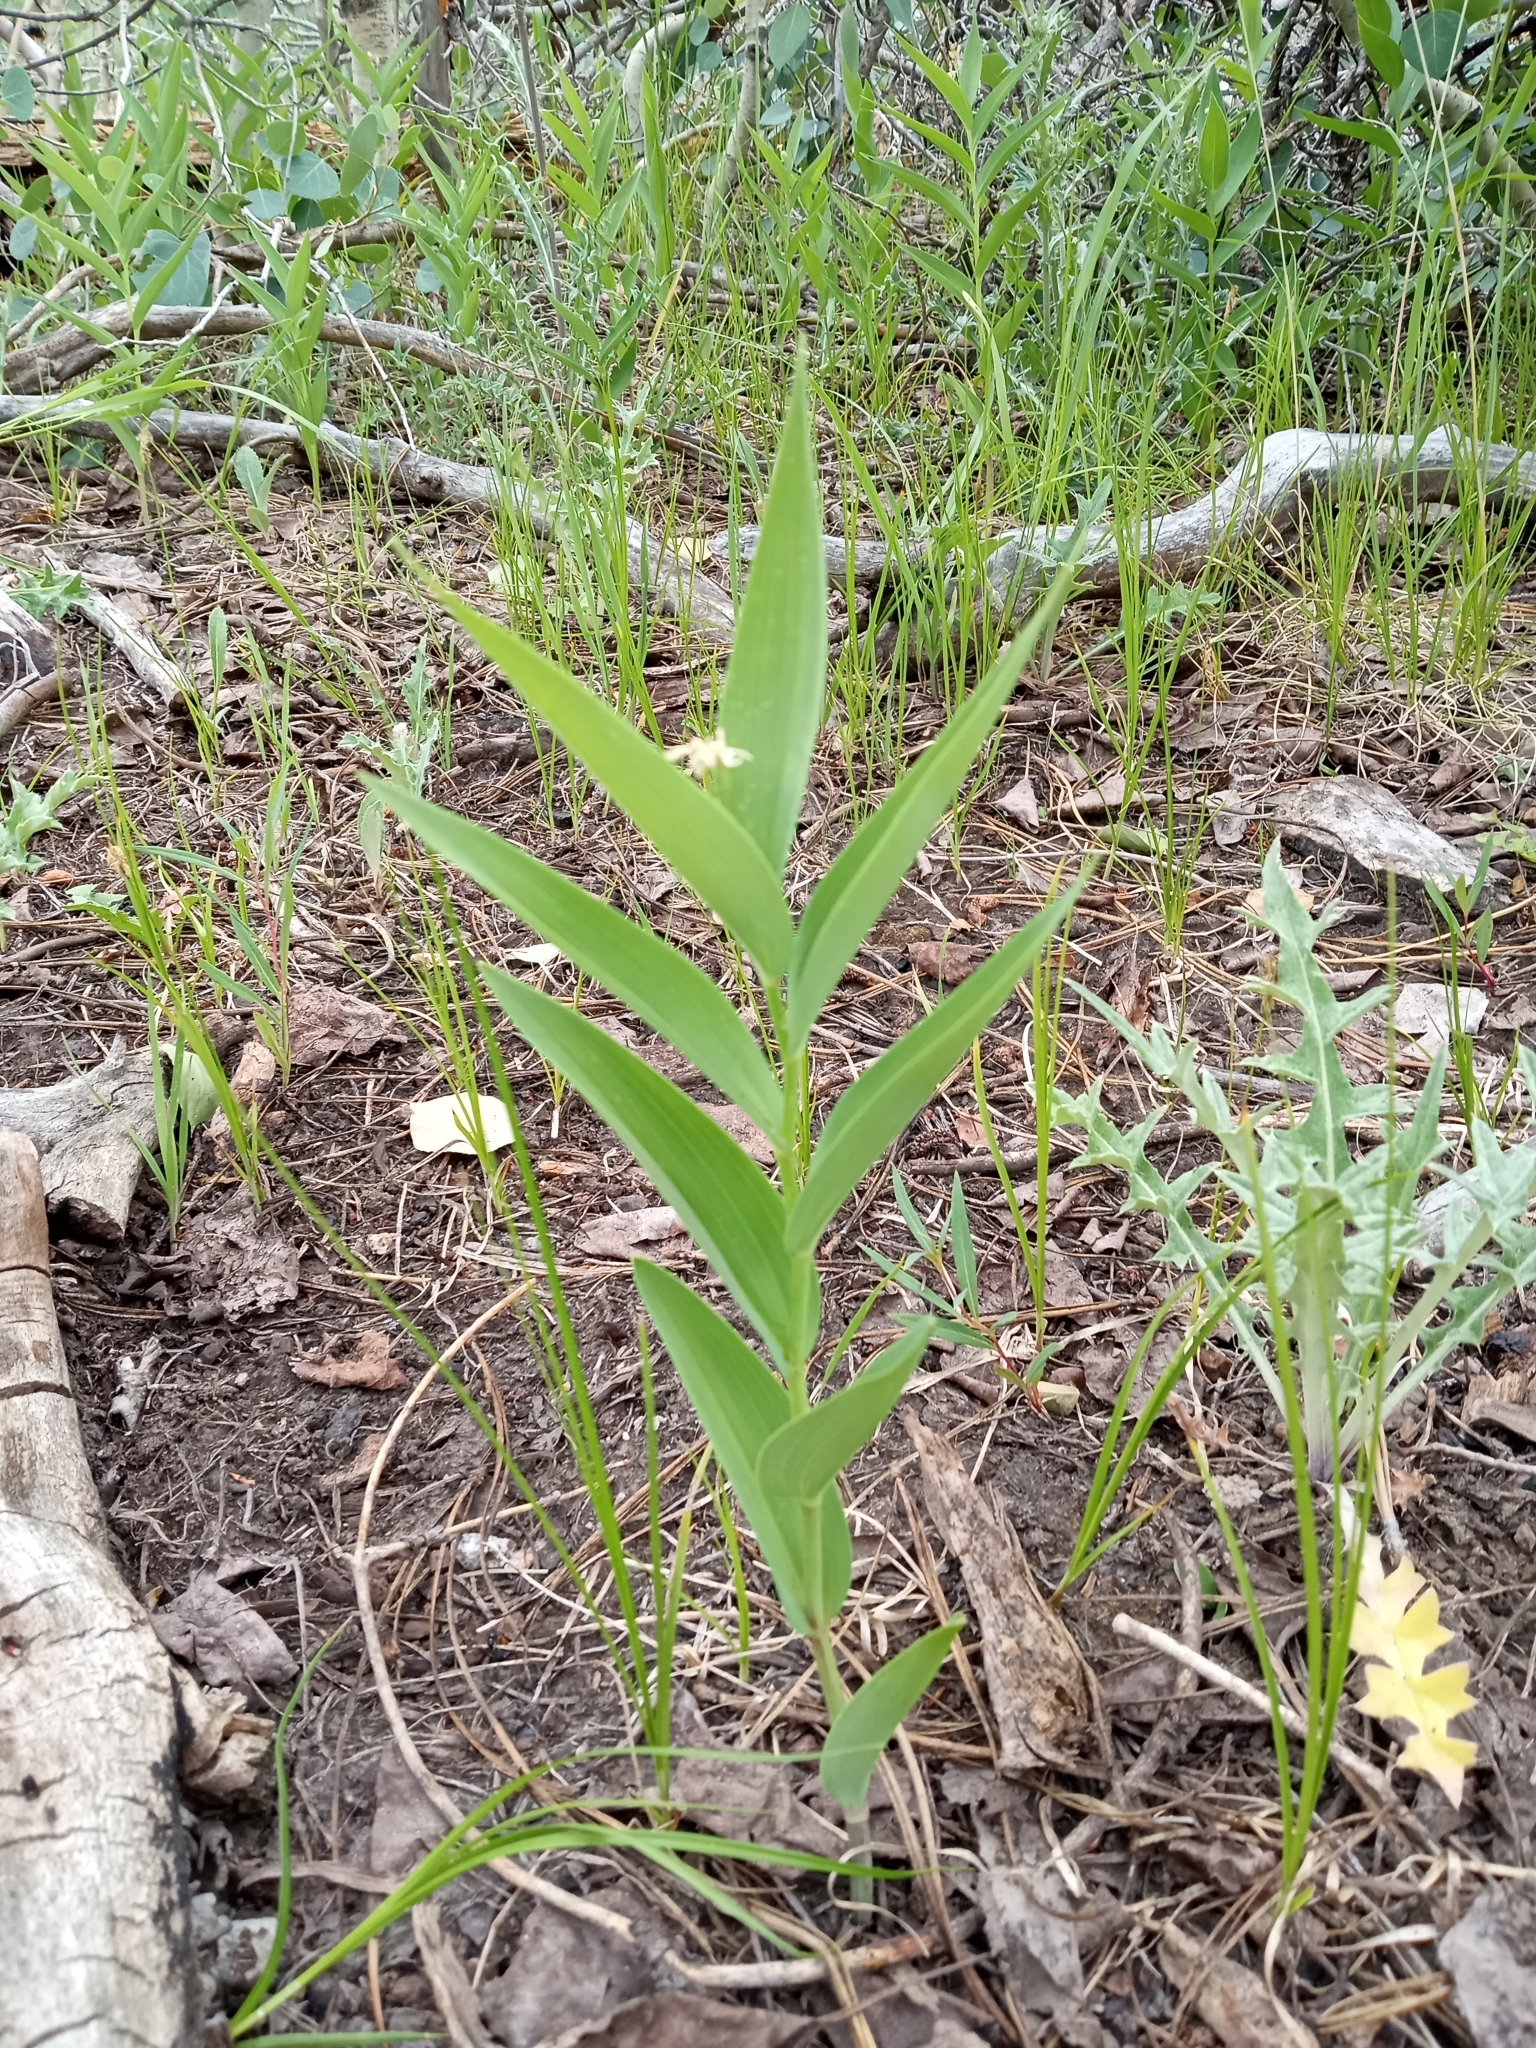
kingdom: Plantae
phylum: Tracheophyta
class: Liliopsida
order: Asparagales
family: Asparagaceae
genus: Maianthemum
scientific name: Maianthemum stellatum
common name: Little false solomon's seal
